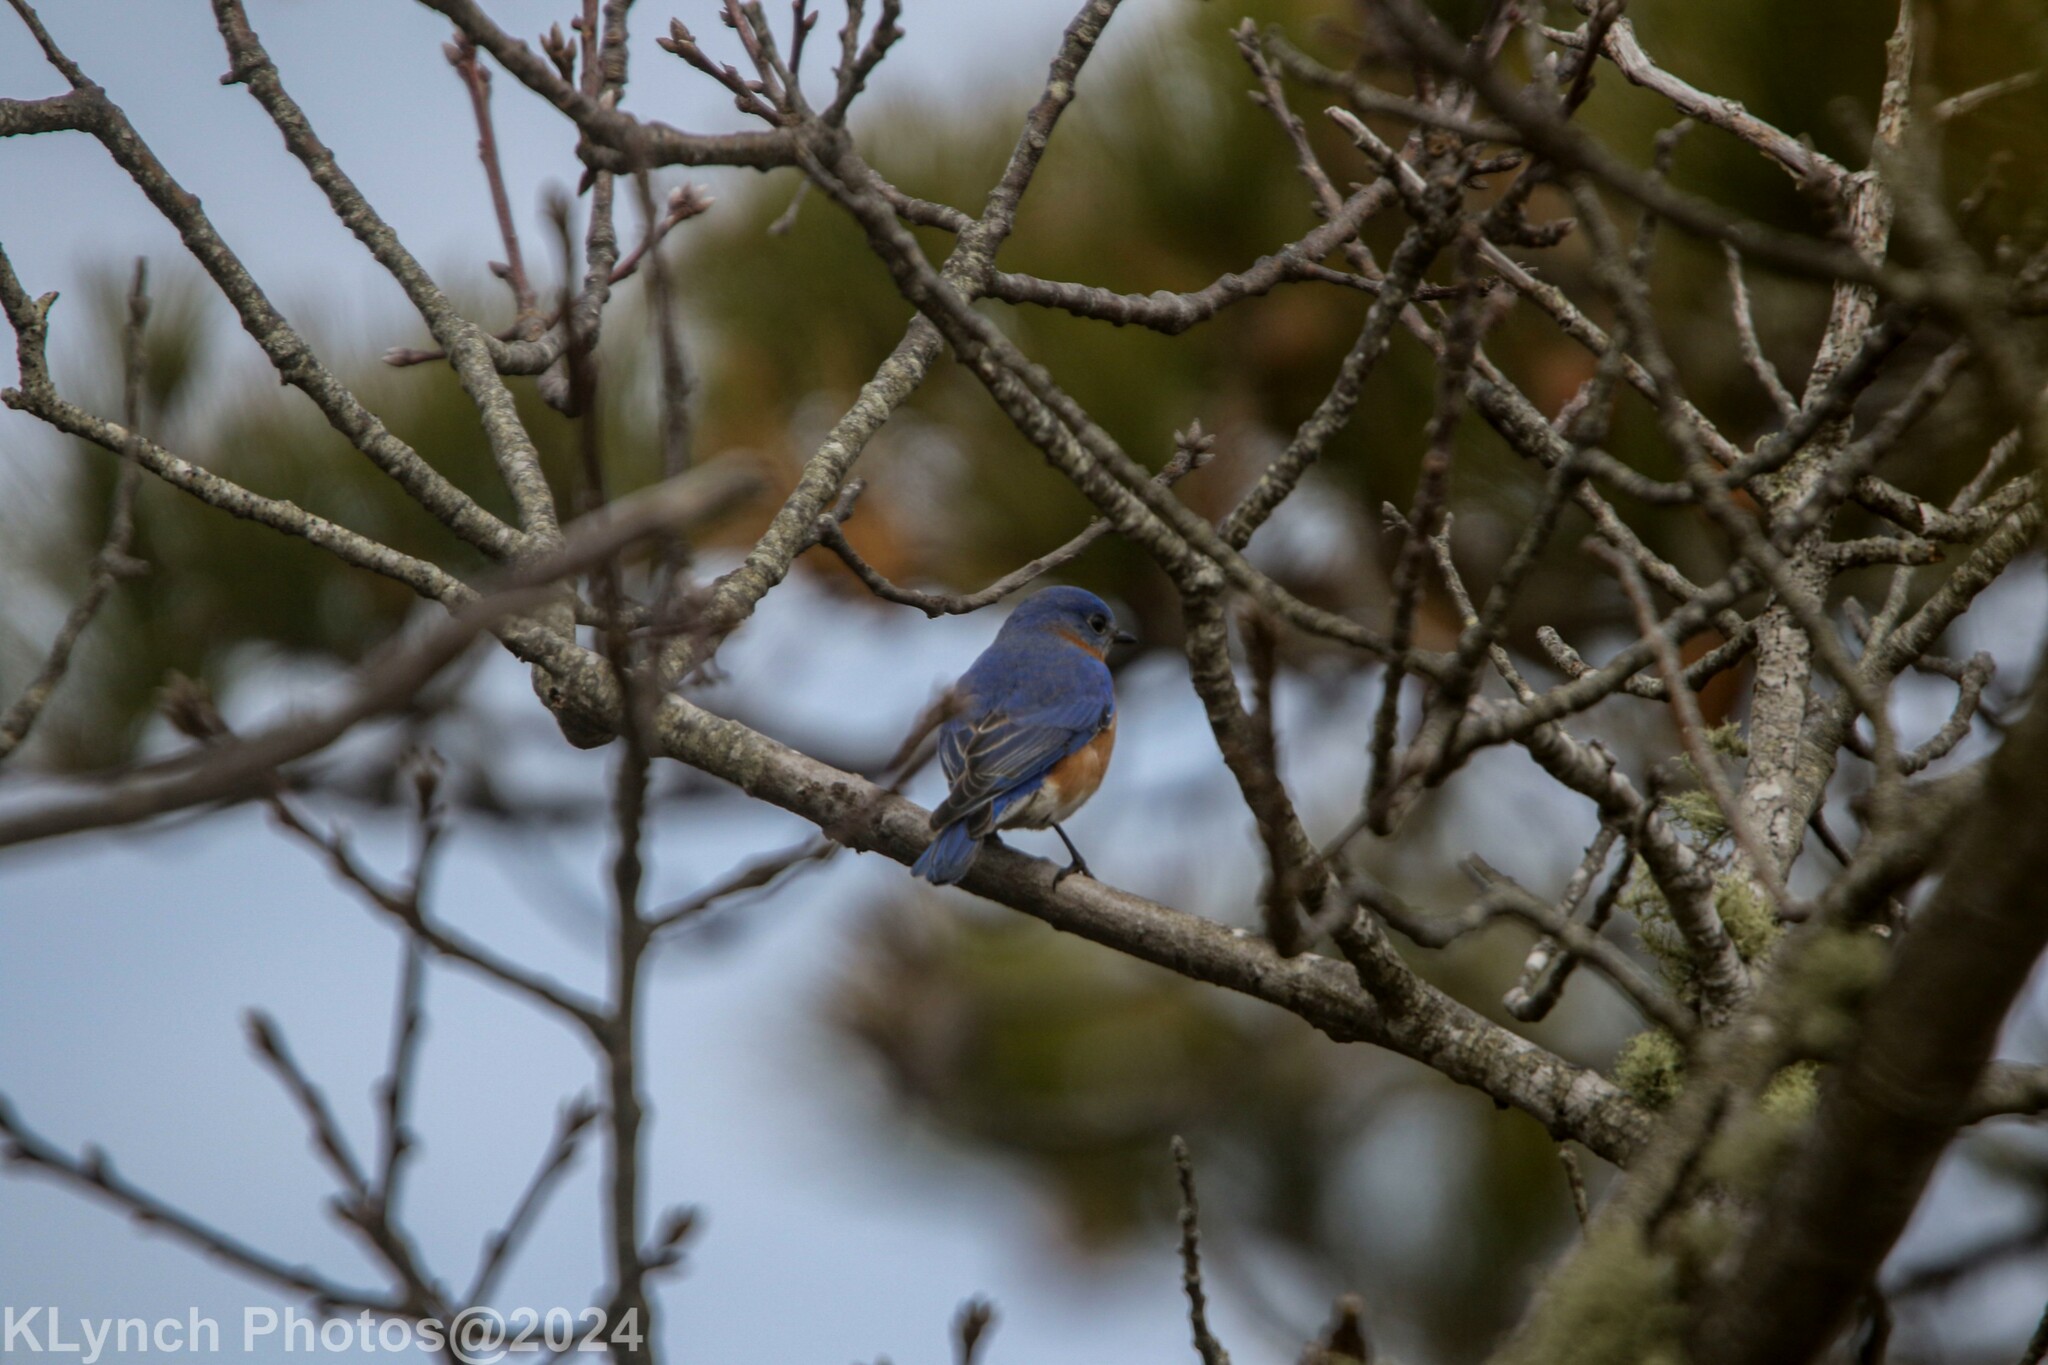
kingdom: Animalia
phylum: Chordata
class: Aves
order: Passeriformes
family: Turdidae
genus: Sialia
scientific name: Sialia sialis
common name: Eastern bluebird
